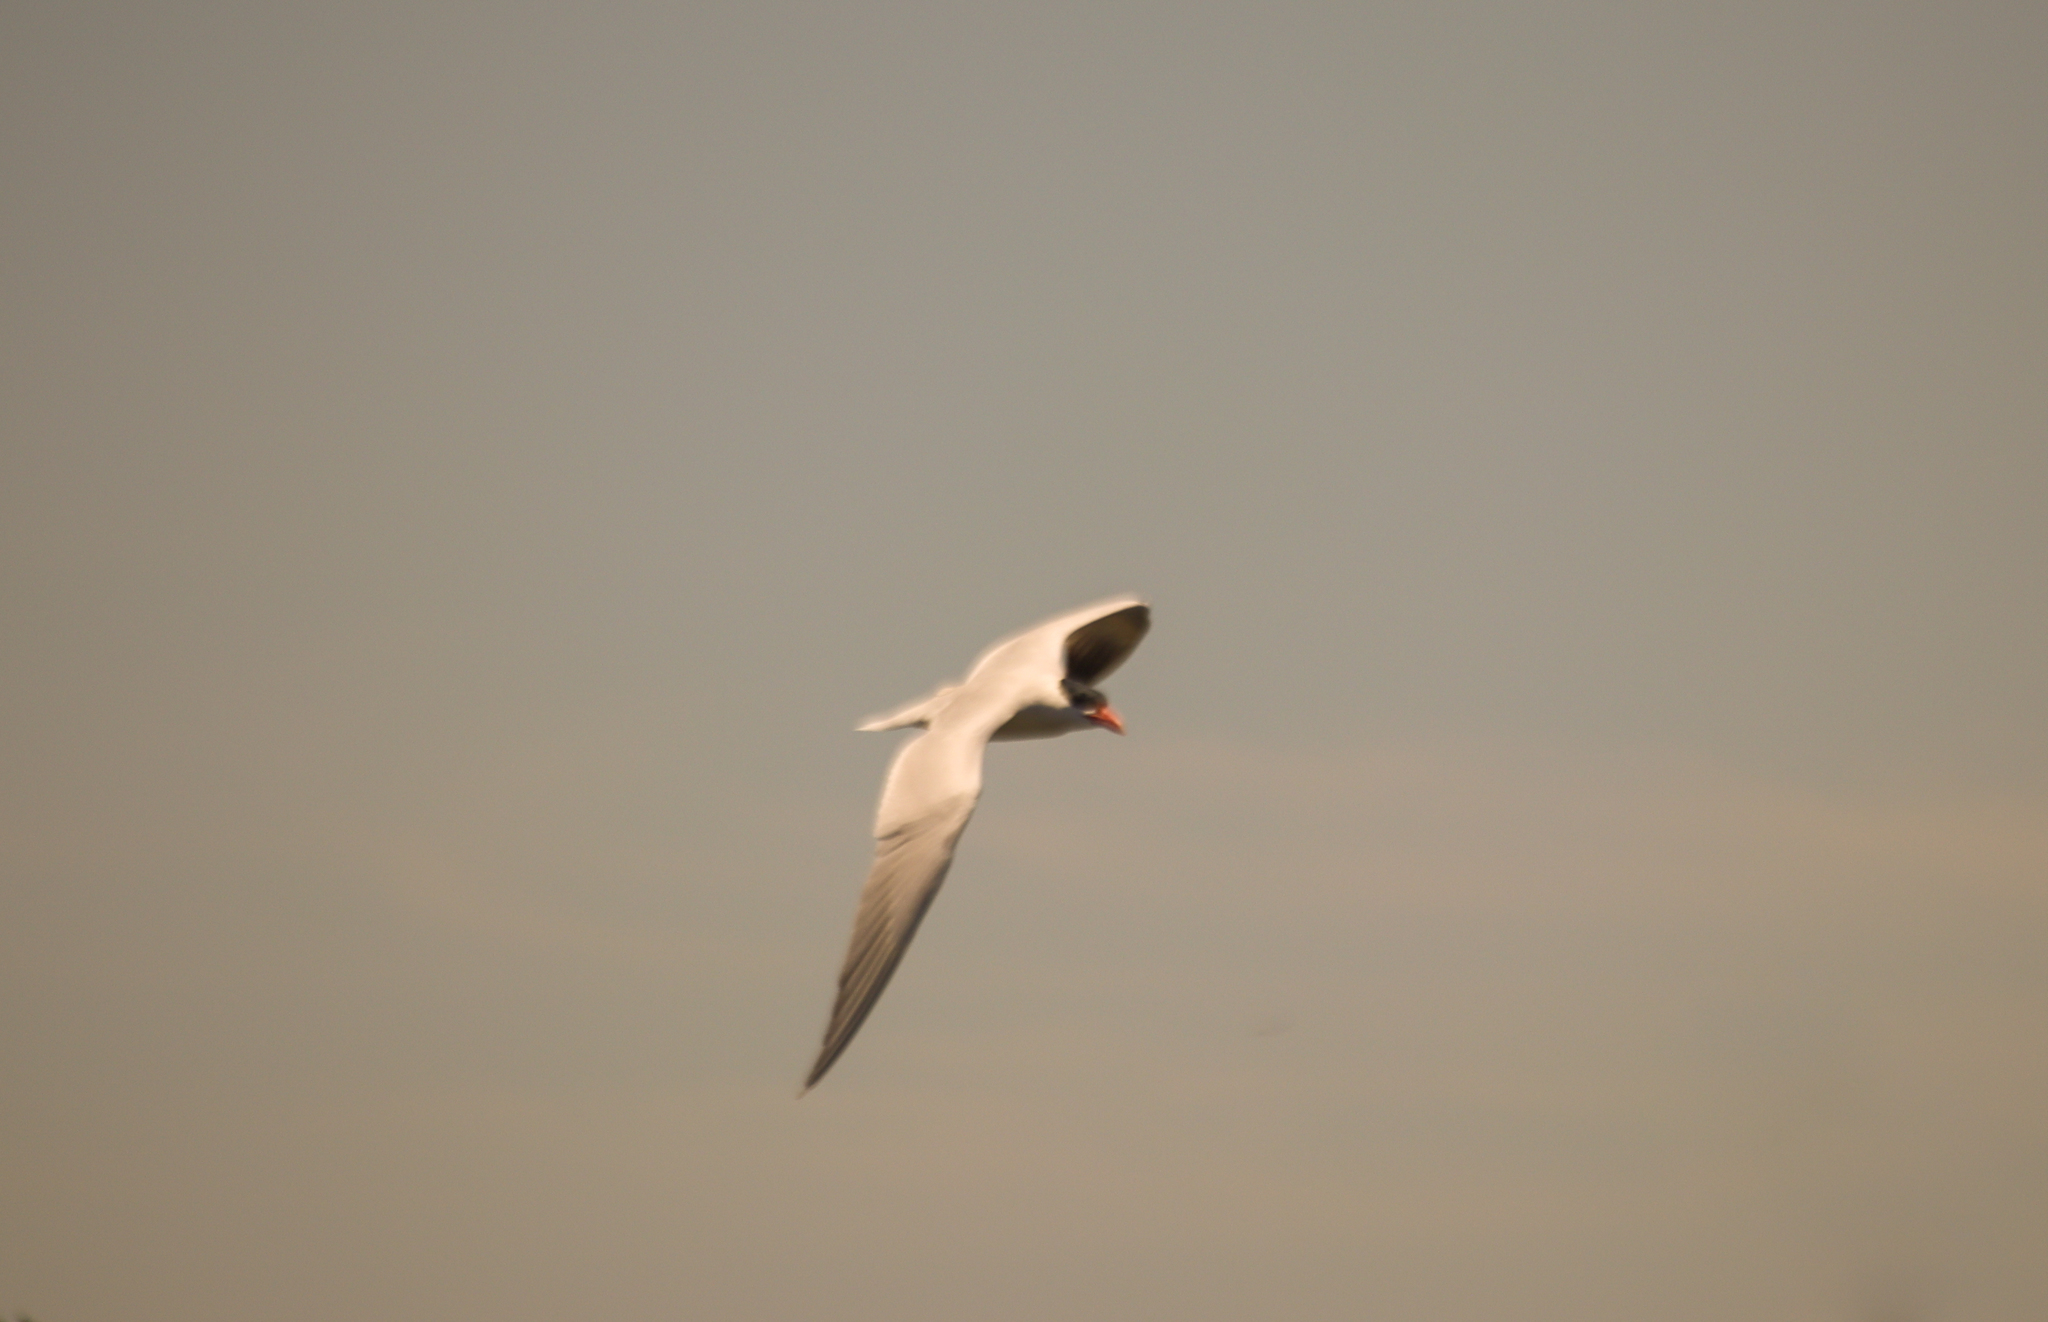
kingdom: Animalia
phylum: Chordata
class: Aves
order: Charadriiformes
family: Laridae
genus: Hydroprogne
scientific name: Hydroprogne caspia
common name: Caspian tern
